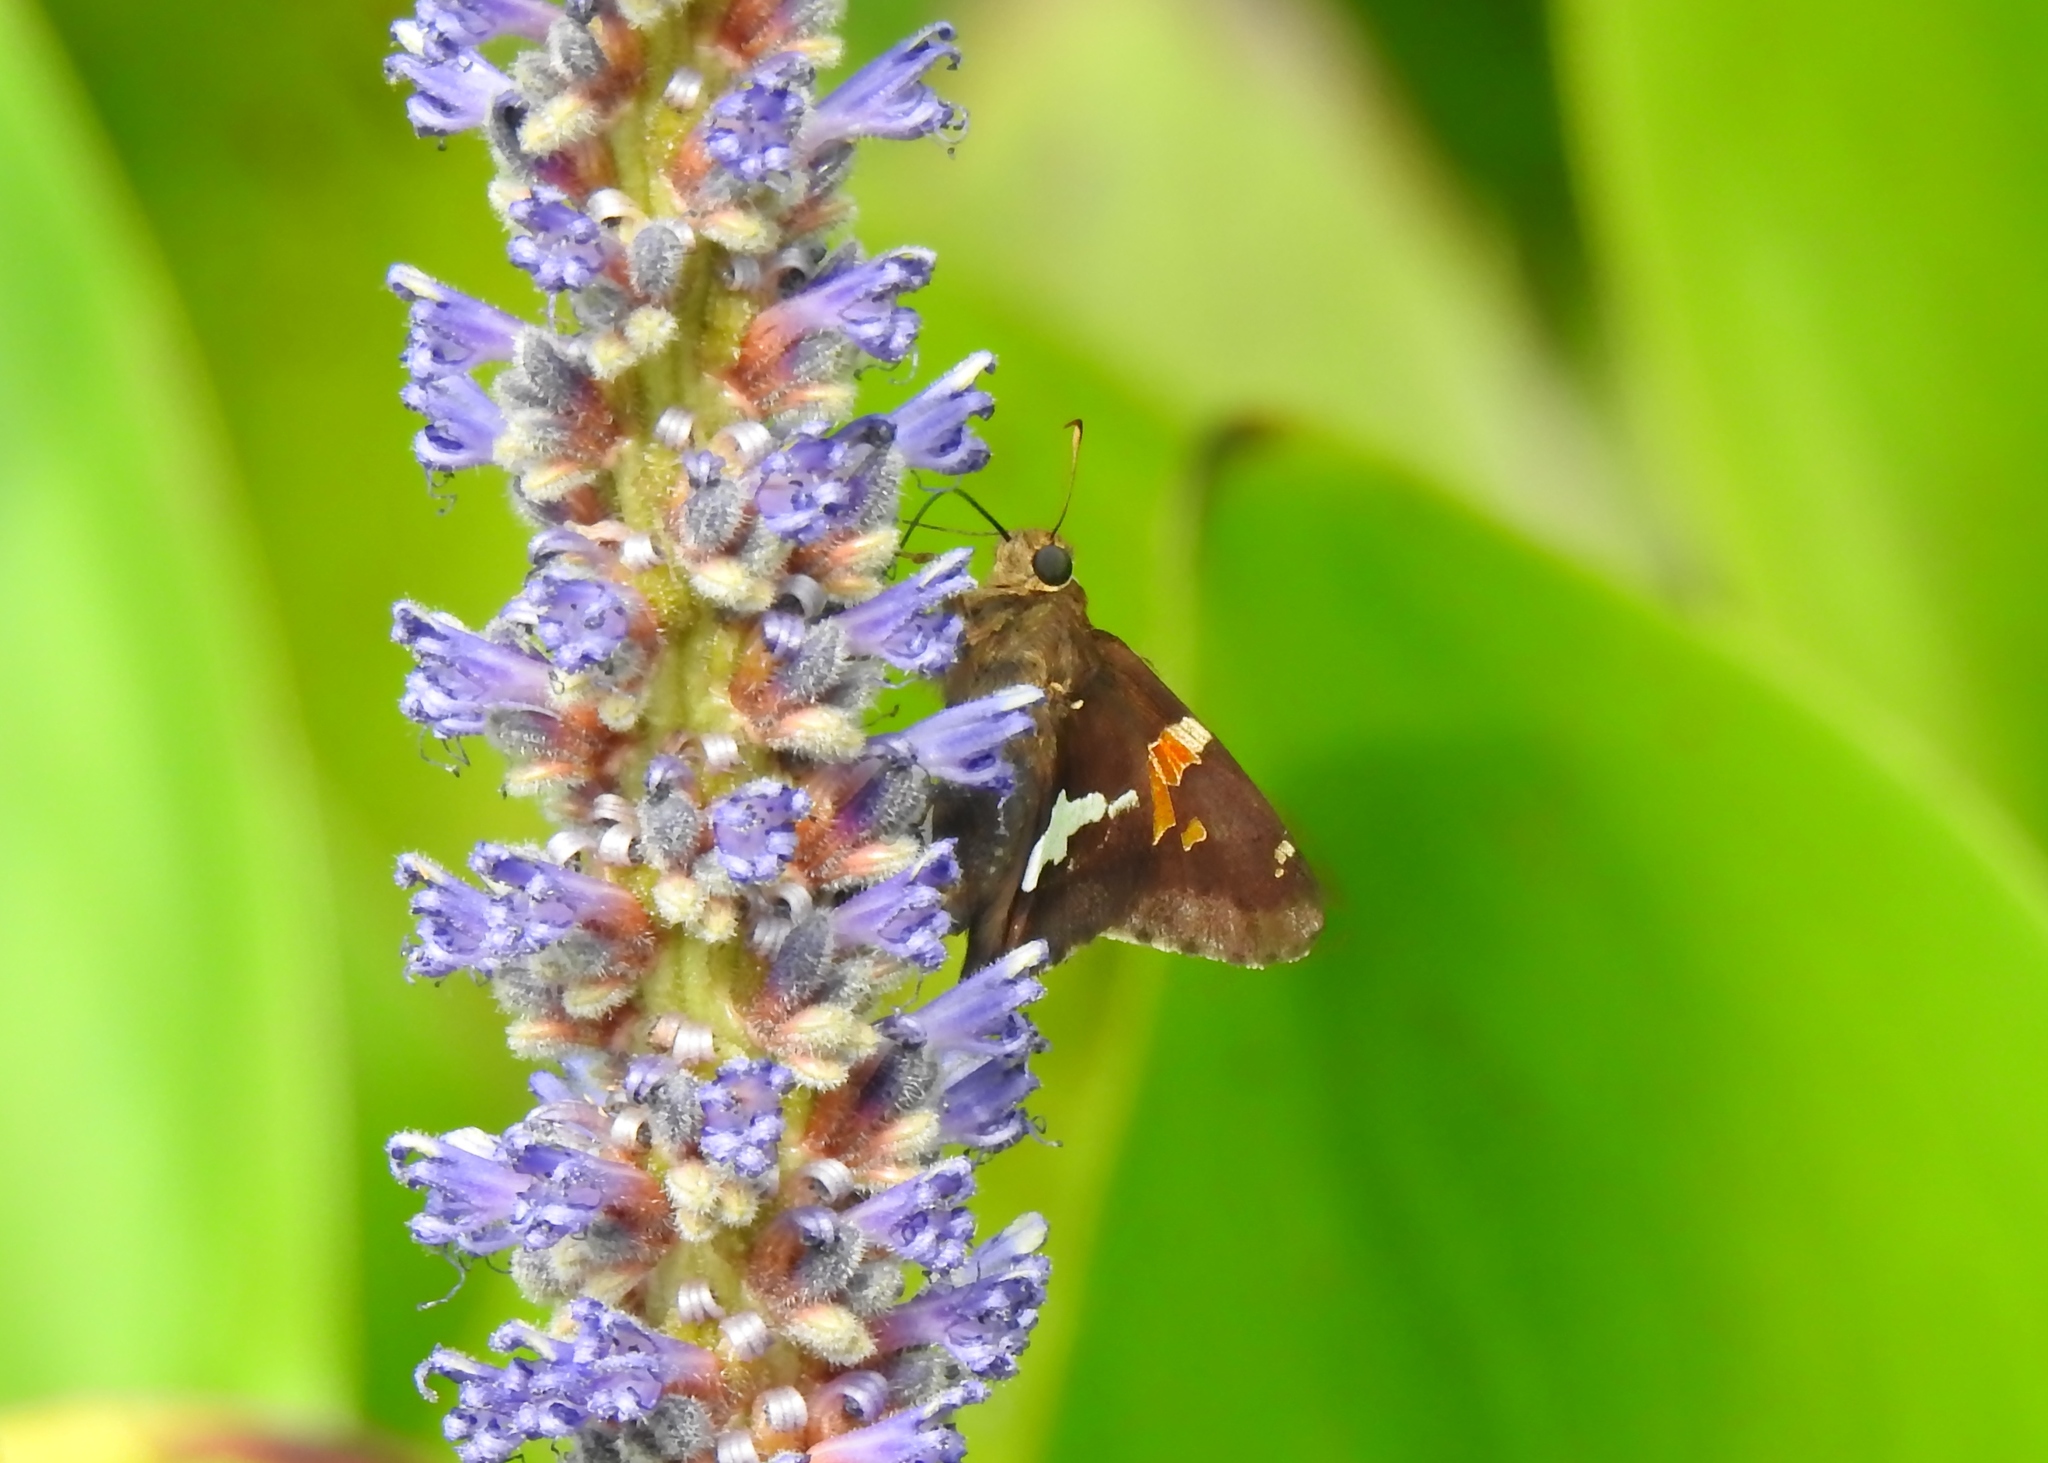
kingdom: Animalia
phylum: Arthropoda
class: Insecta
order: Lepidoptera
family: Hesperiidae
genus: Epargyreus
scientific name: Epargyreus clarus
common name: Silver-spotted skipper
